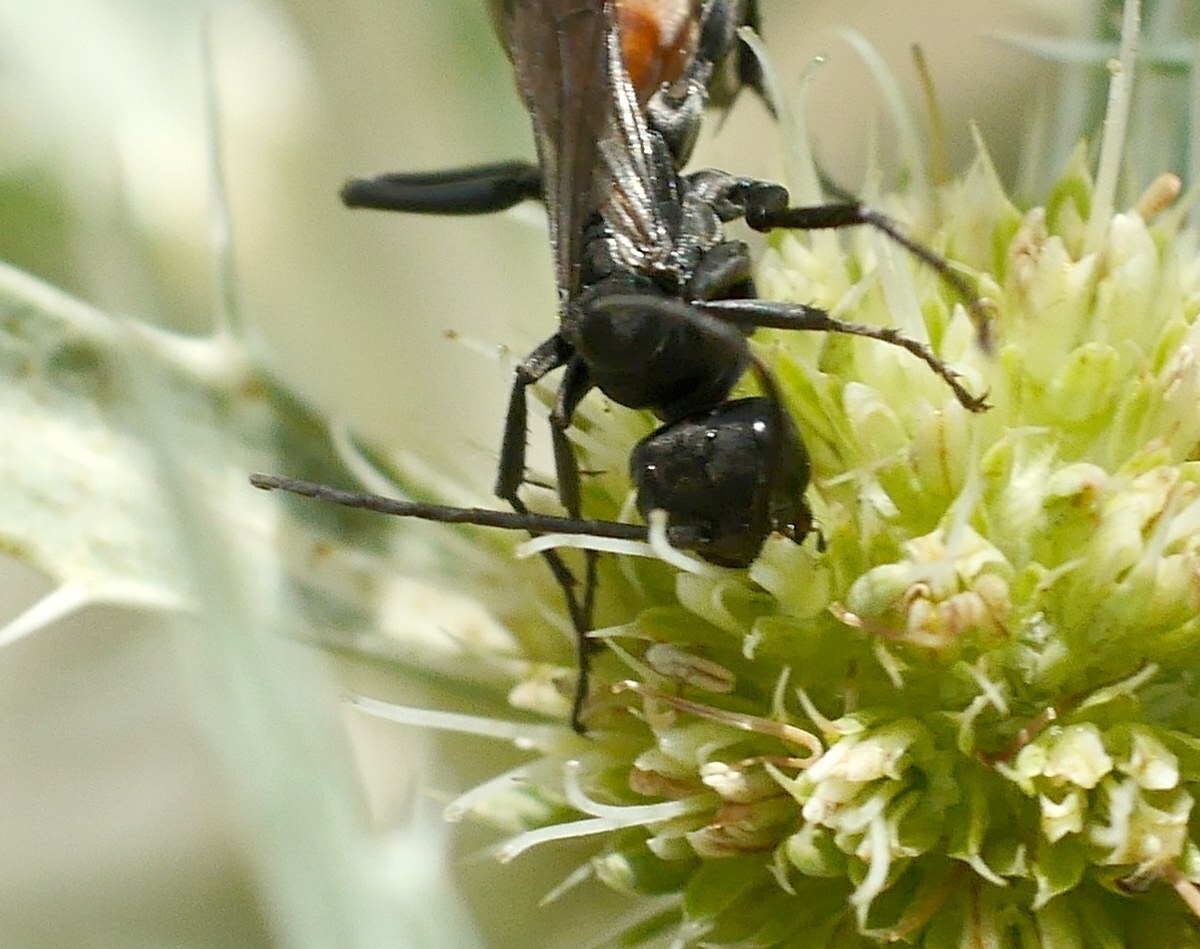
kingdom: Animalia
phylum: Arthropoda
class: Insecta
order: Hymenoptera
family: Pompilidae
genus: Cryptocheilus
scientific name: Cryptocheilus freygessneri
